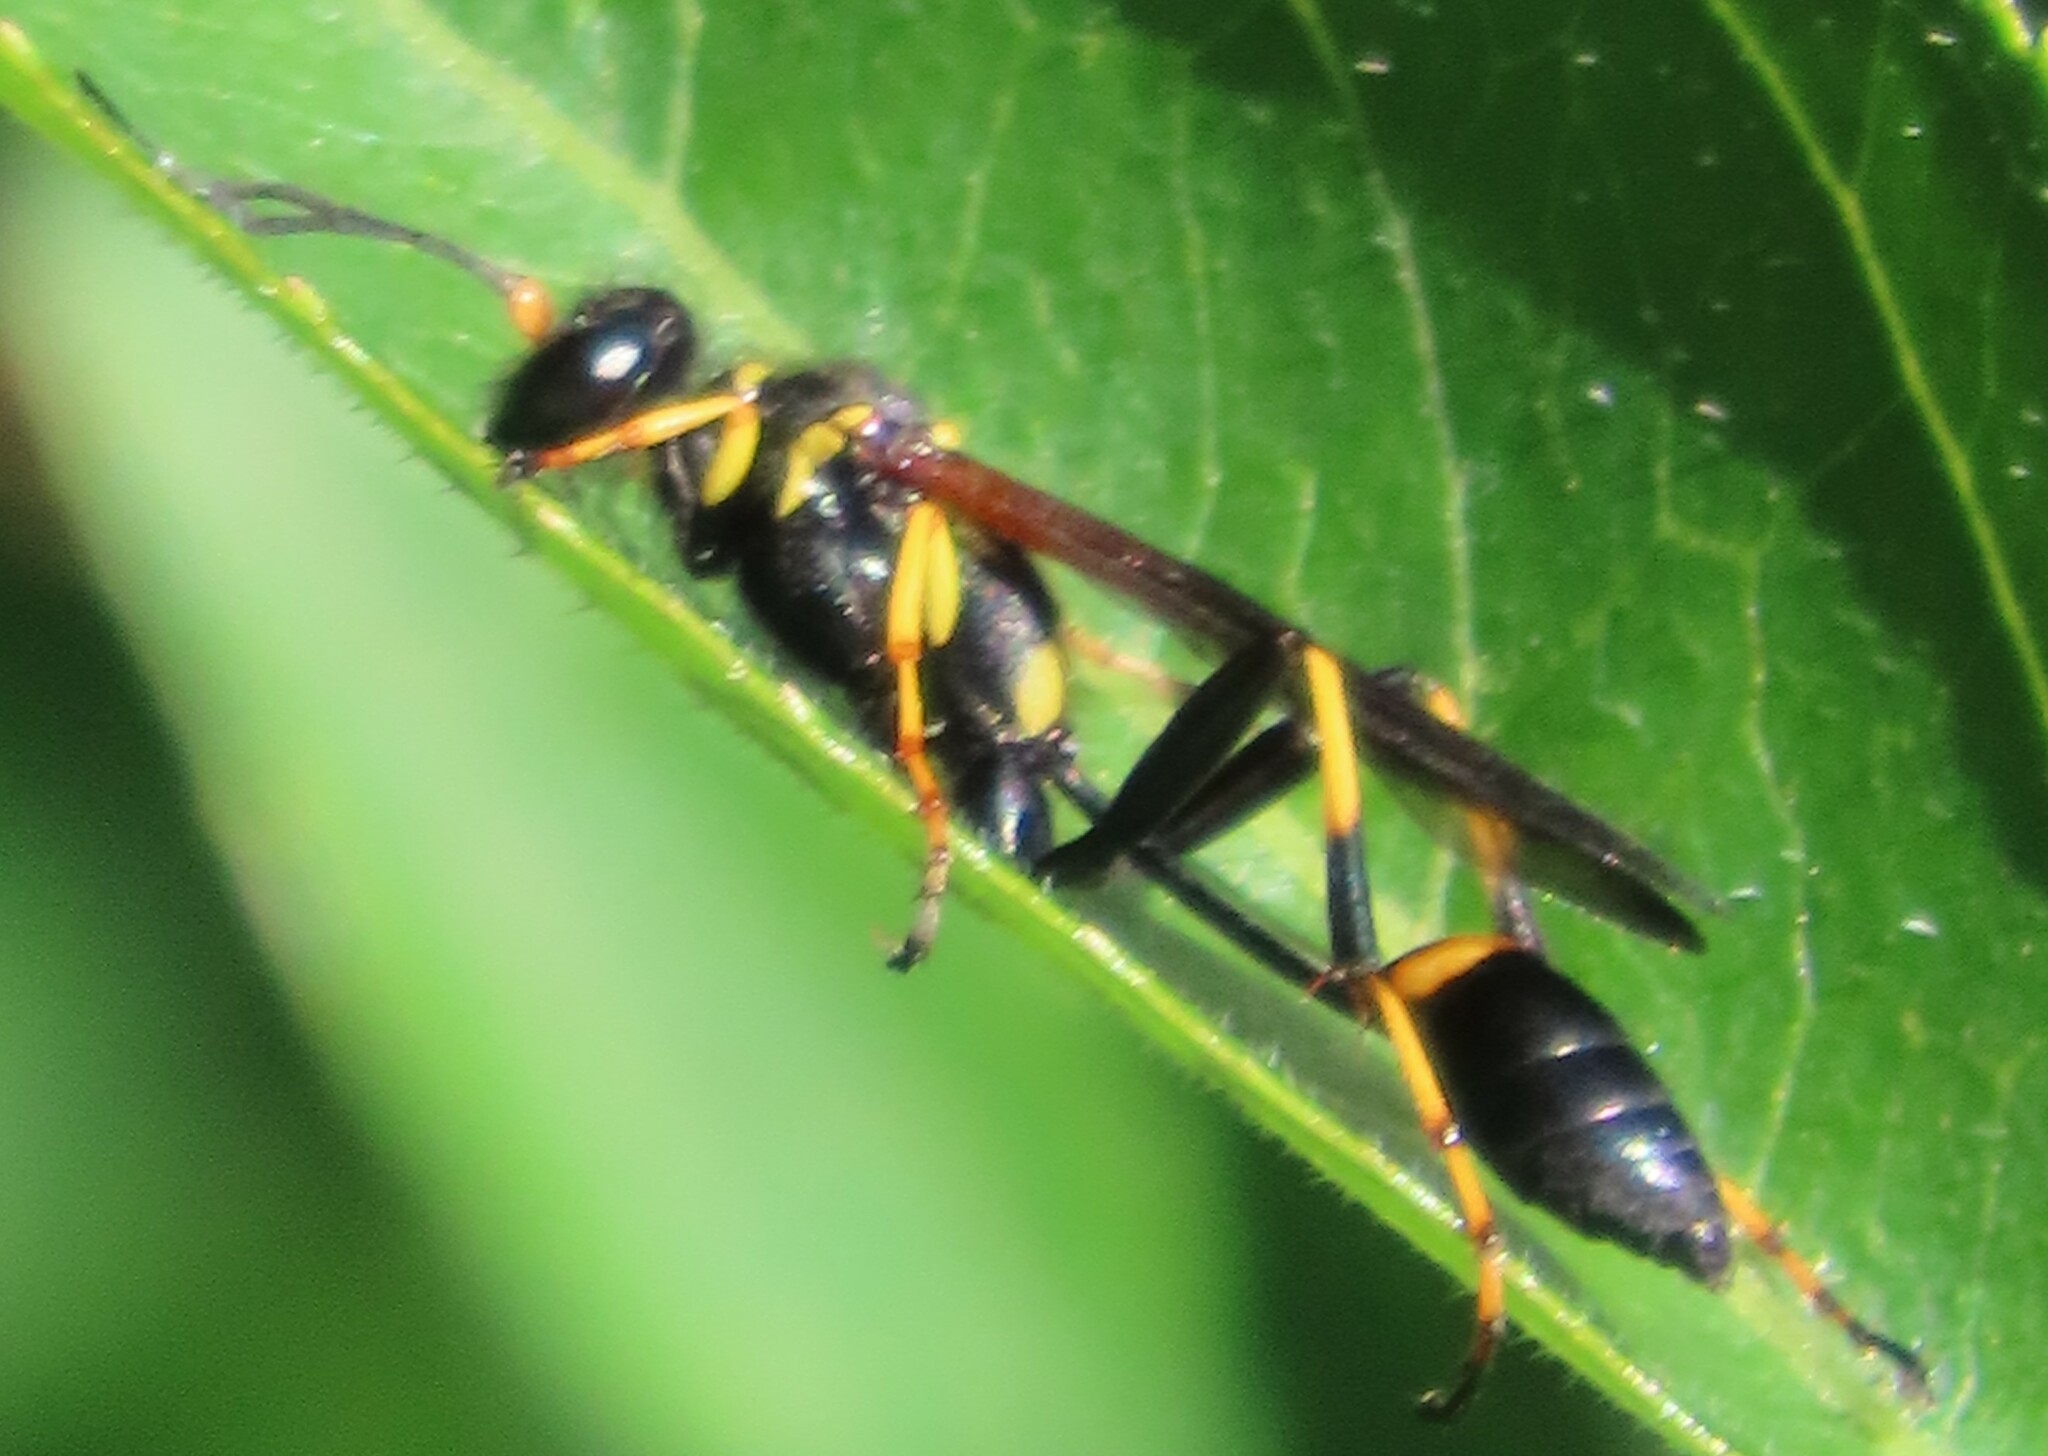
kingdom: Animalia
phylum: Arthropoda
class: Insecta
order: Hymenoptera
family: Sphecidae
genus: Sceliphron
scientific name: Sceliphron caementarium
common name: Mud dauber
